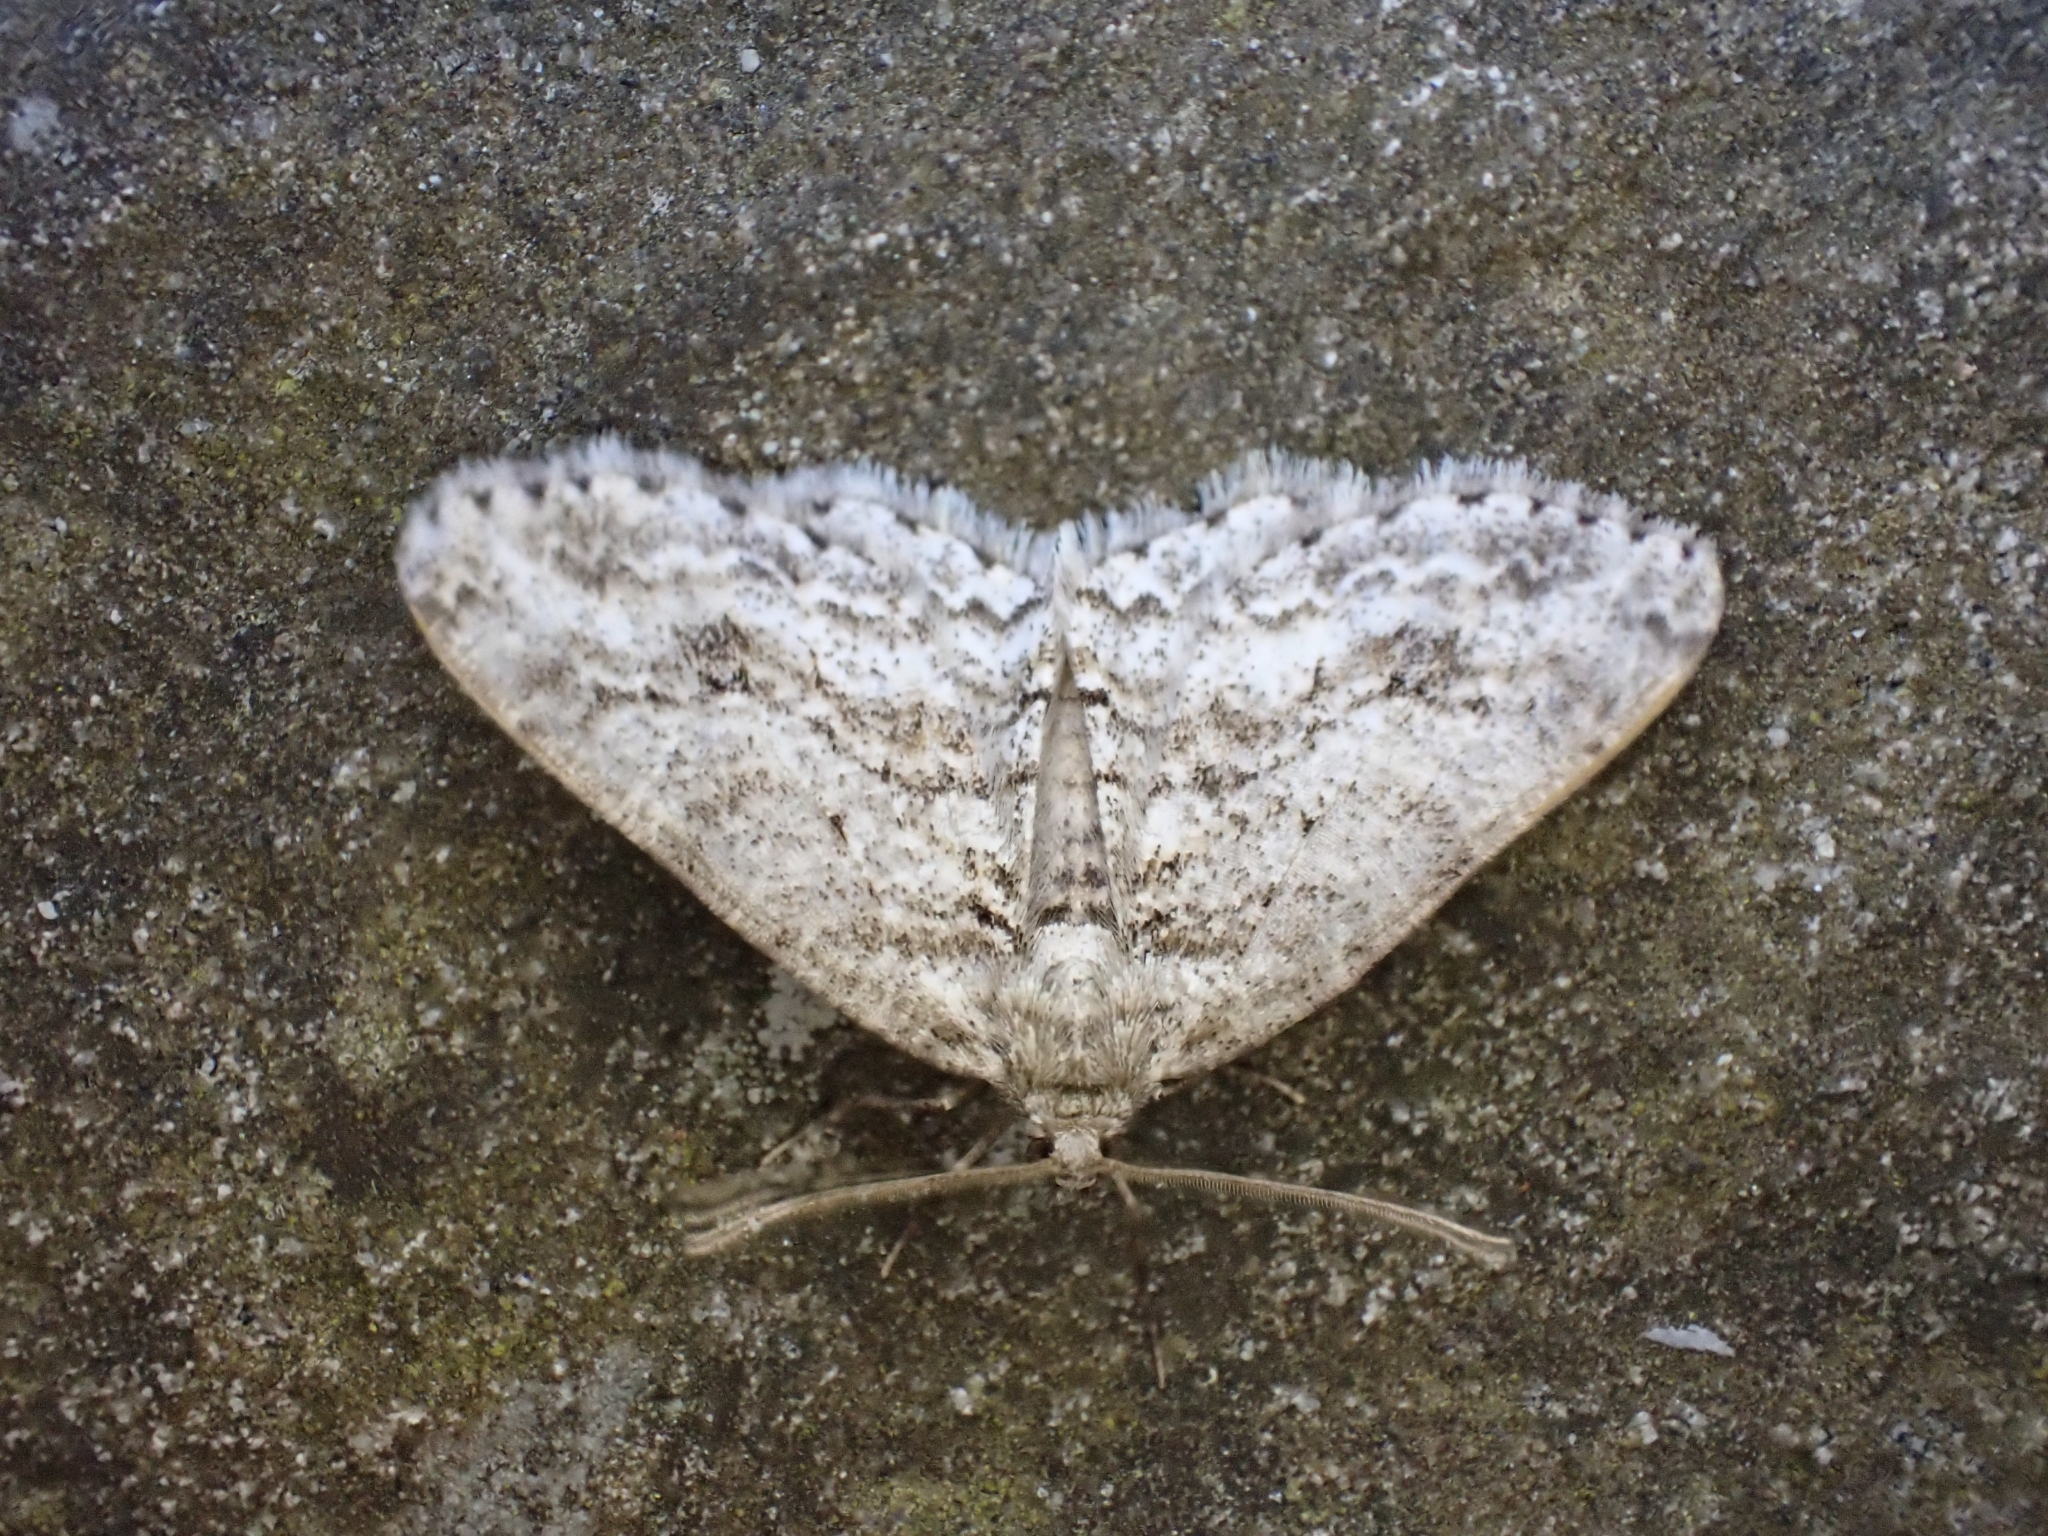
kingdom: Animalia
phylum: Arthropoda
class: Insecta
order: Lepidoptera
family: Geometridae
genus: Ectropis
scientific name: Ectropis crepuscularia
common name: Engrailed
